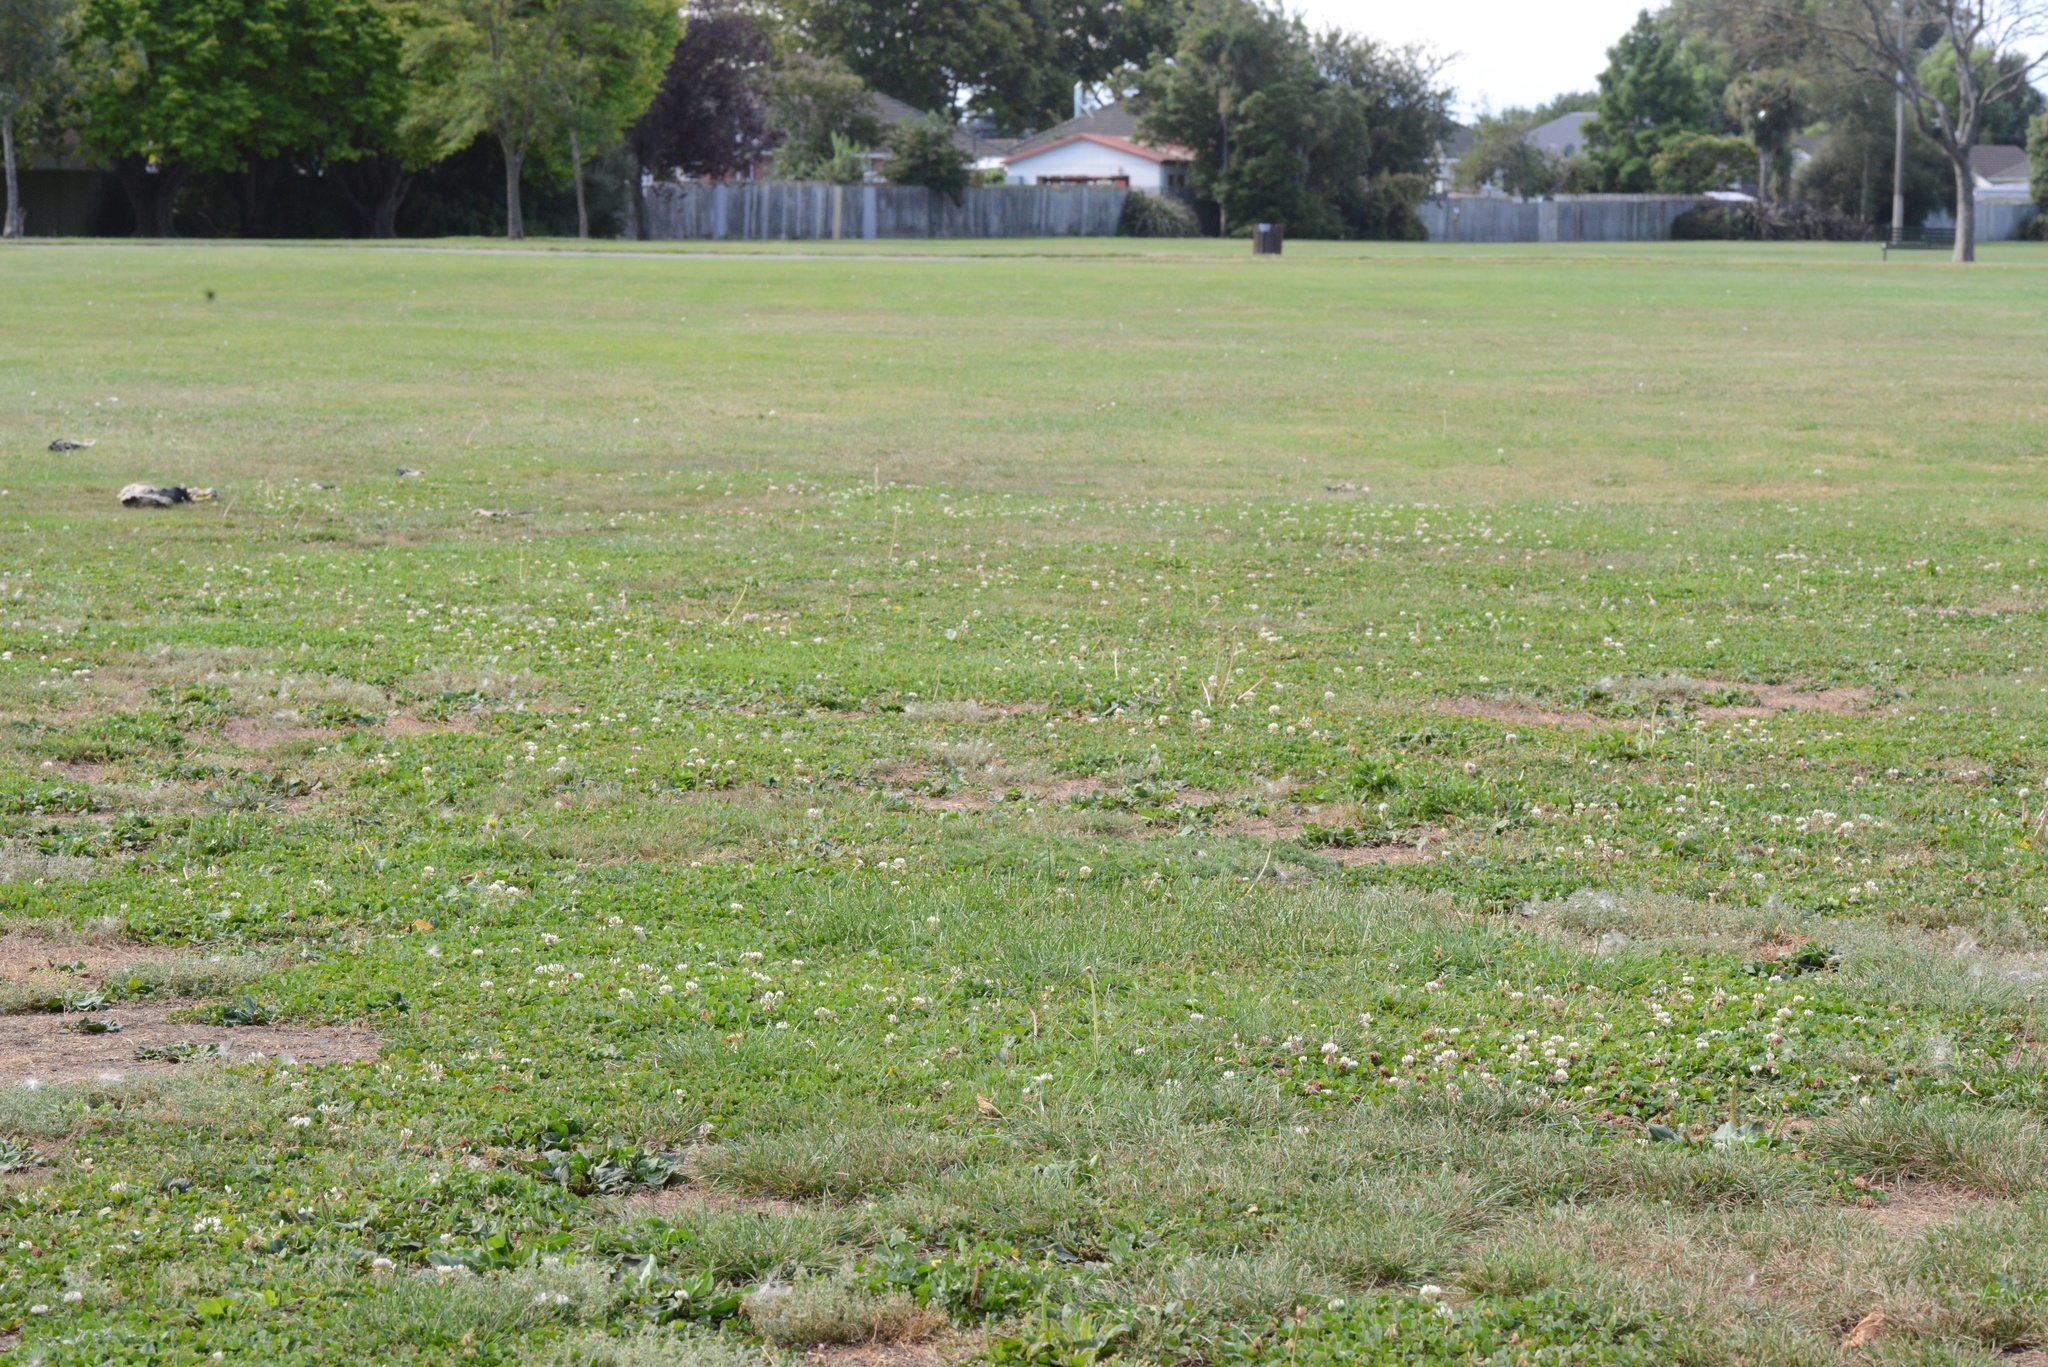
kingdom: Plantae
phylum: Tracheophyta
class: Magnoliopsida
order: Fabales
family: Fabaceae
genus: Trifolium
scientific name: Trifolium repens
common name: White clover
